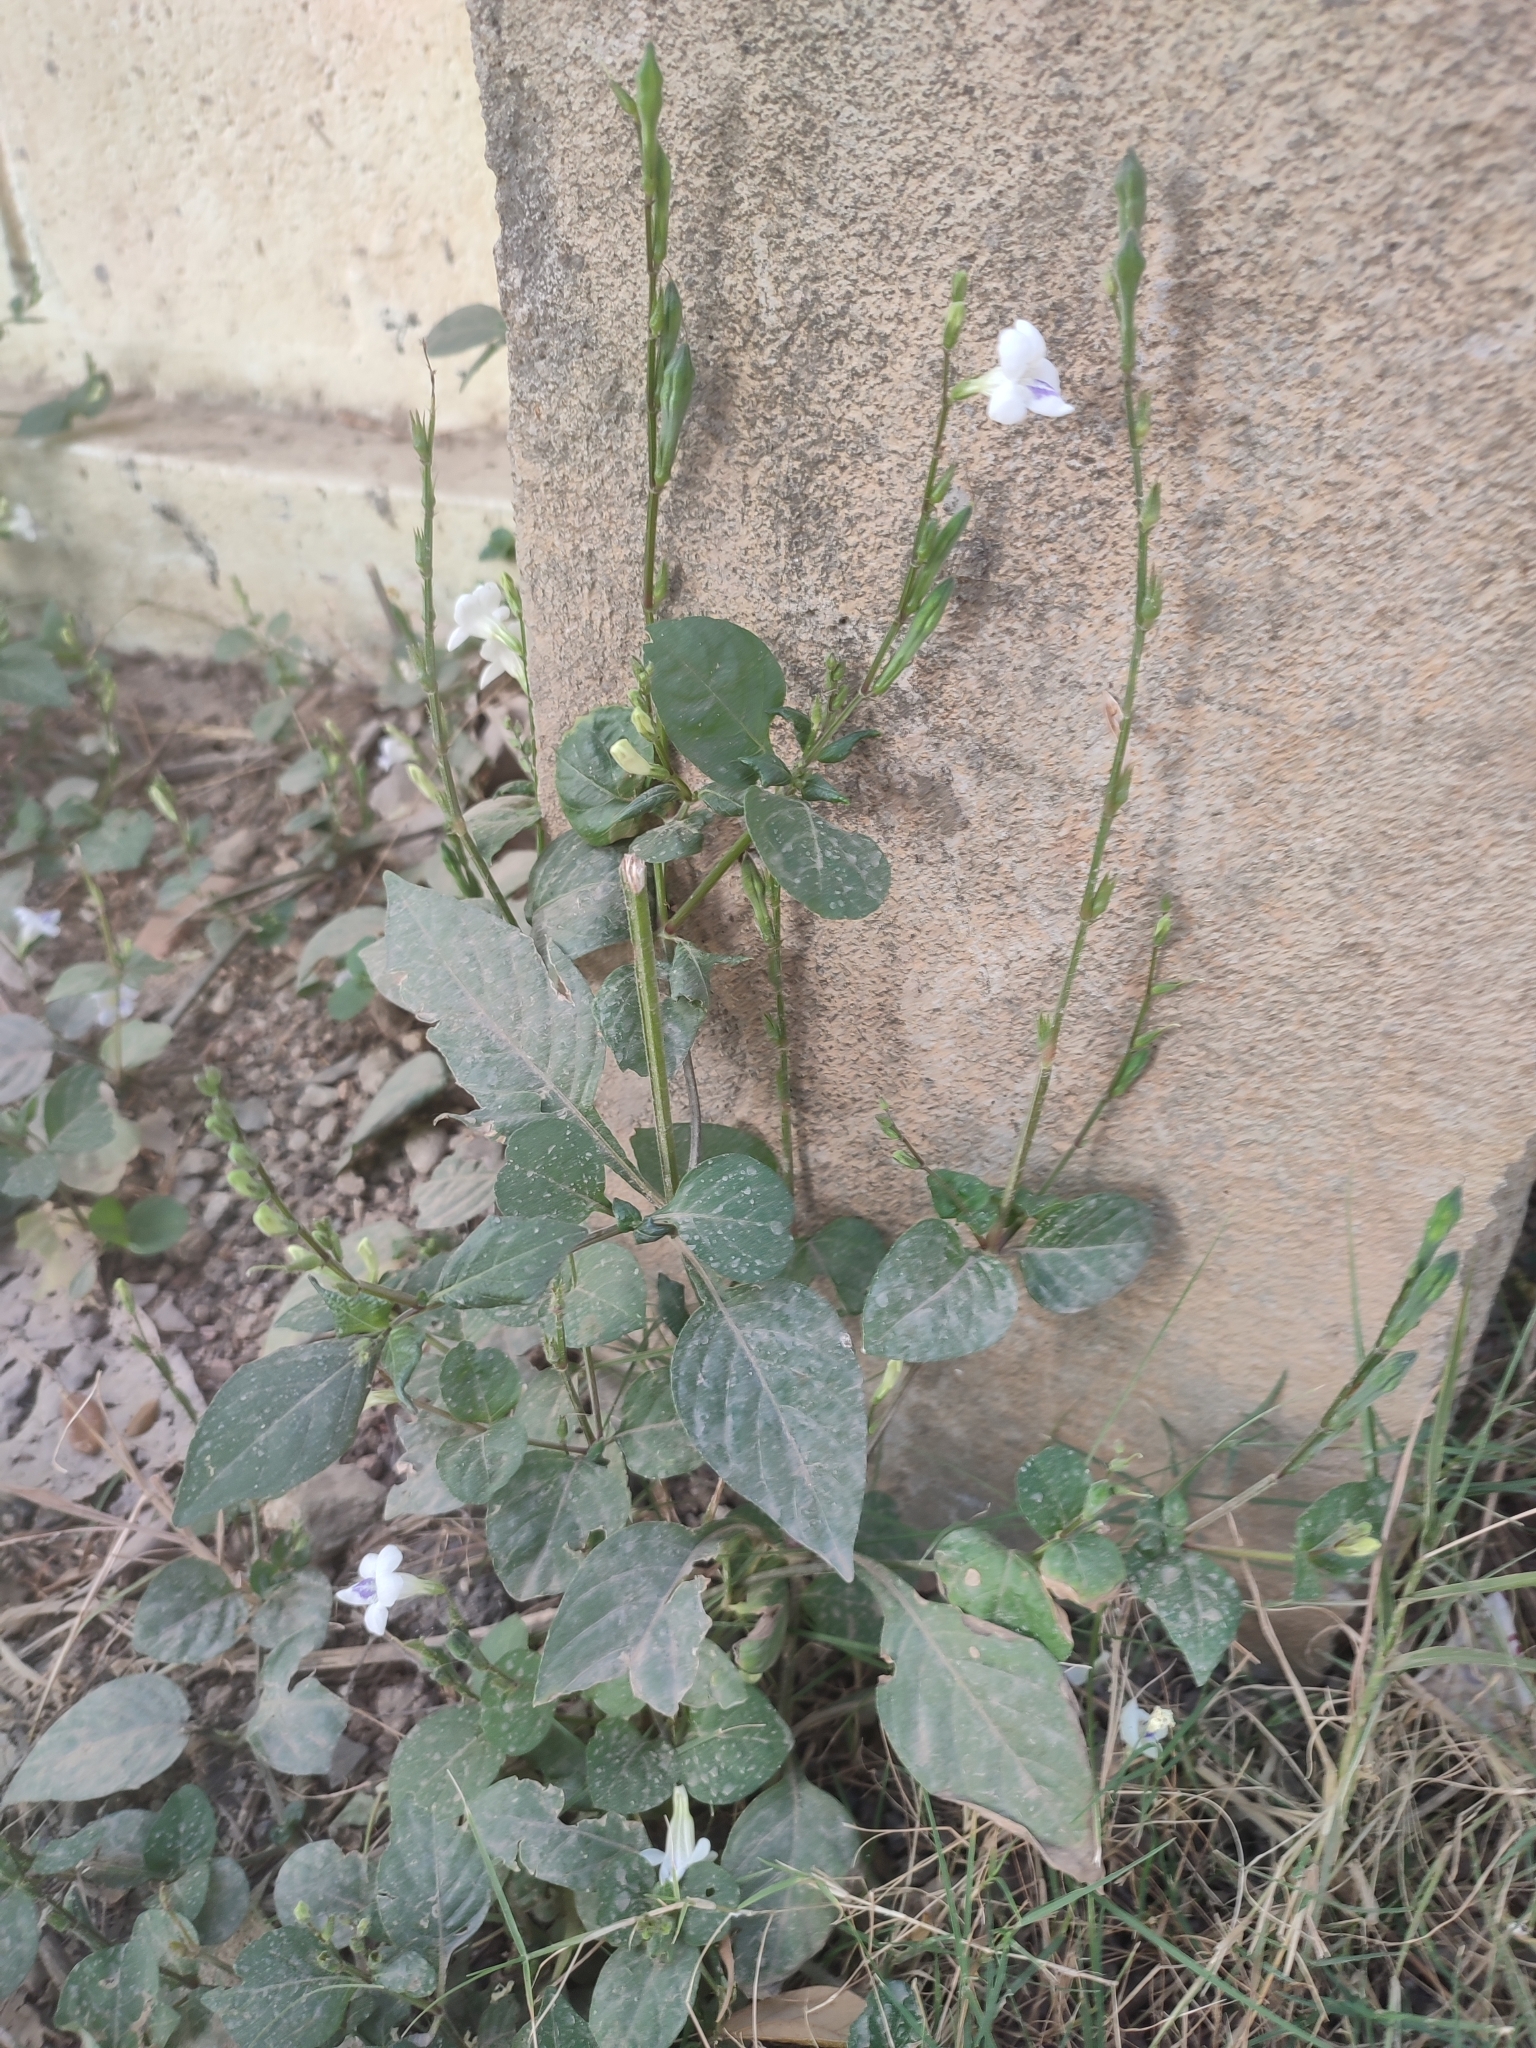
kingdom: Plantae
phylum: Tracheophyta
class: Magnoliopsida
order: Lamiales
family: Acanthaceae
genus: Asystasia
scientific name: Asystasia intrusa
